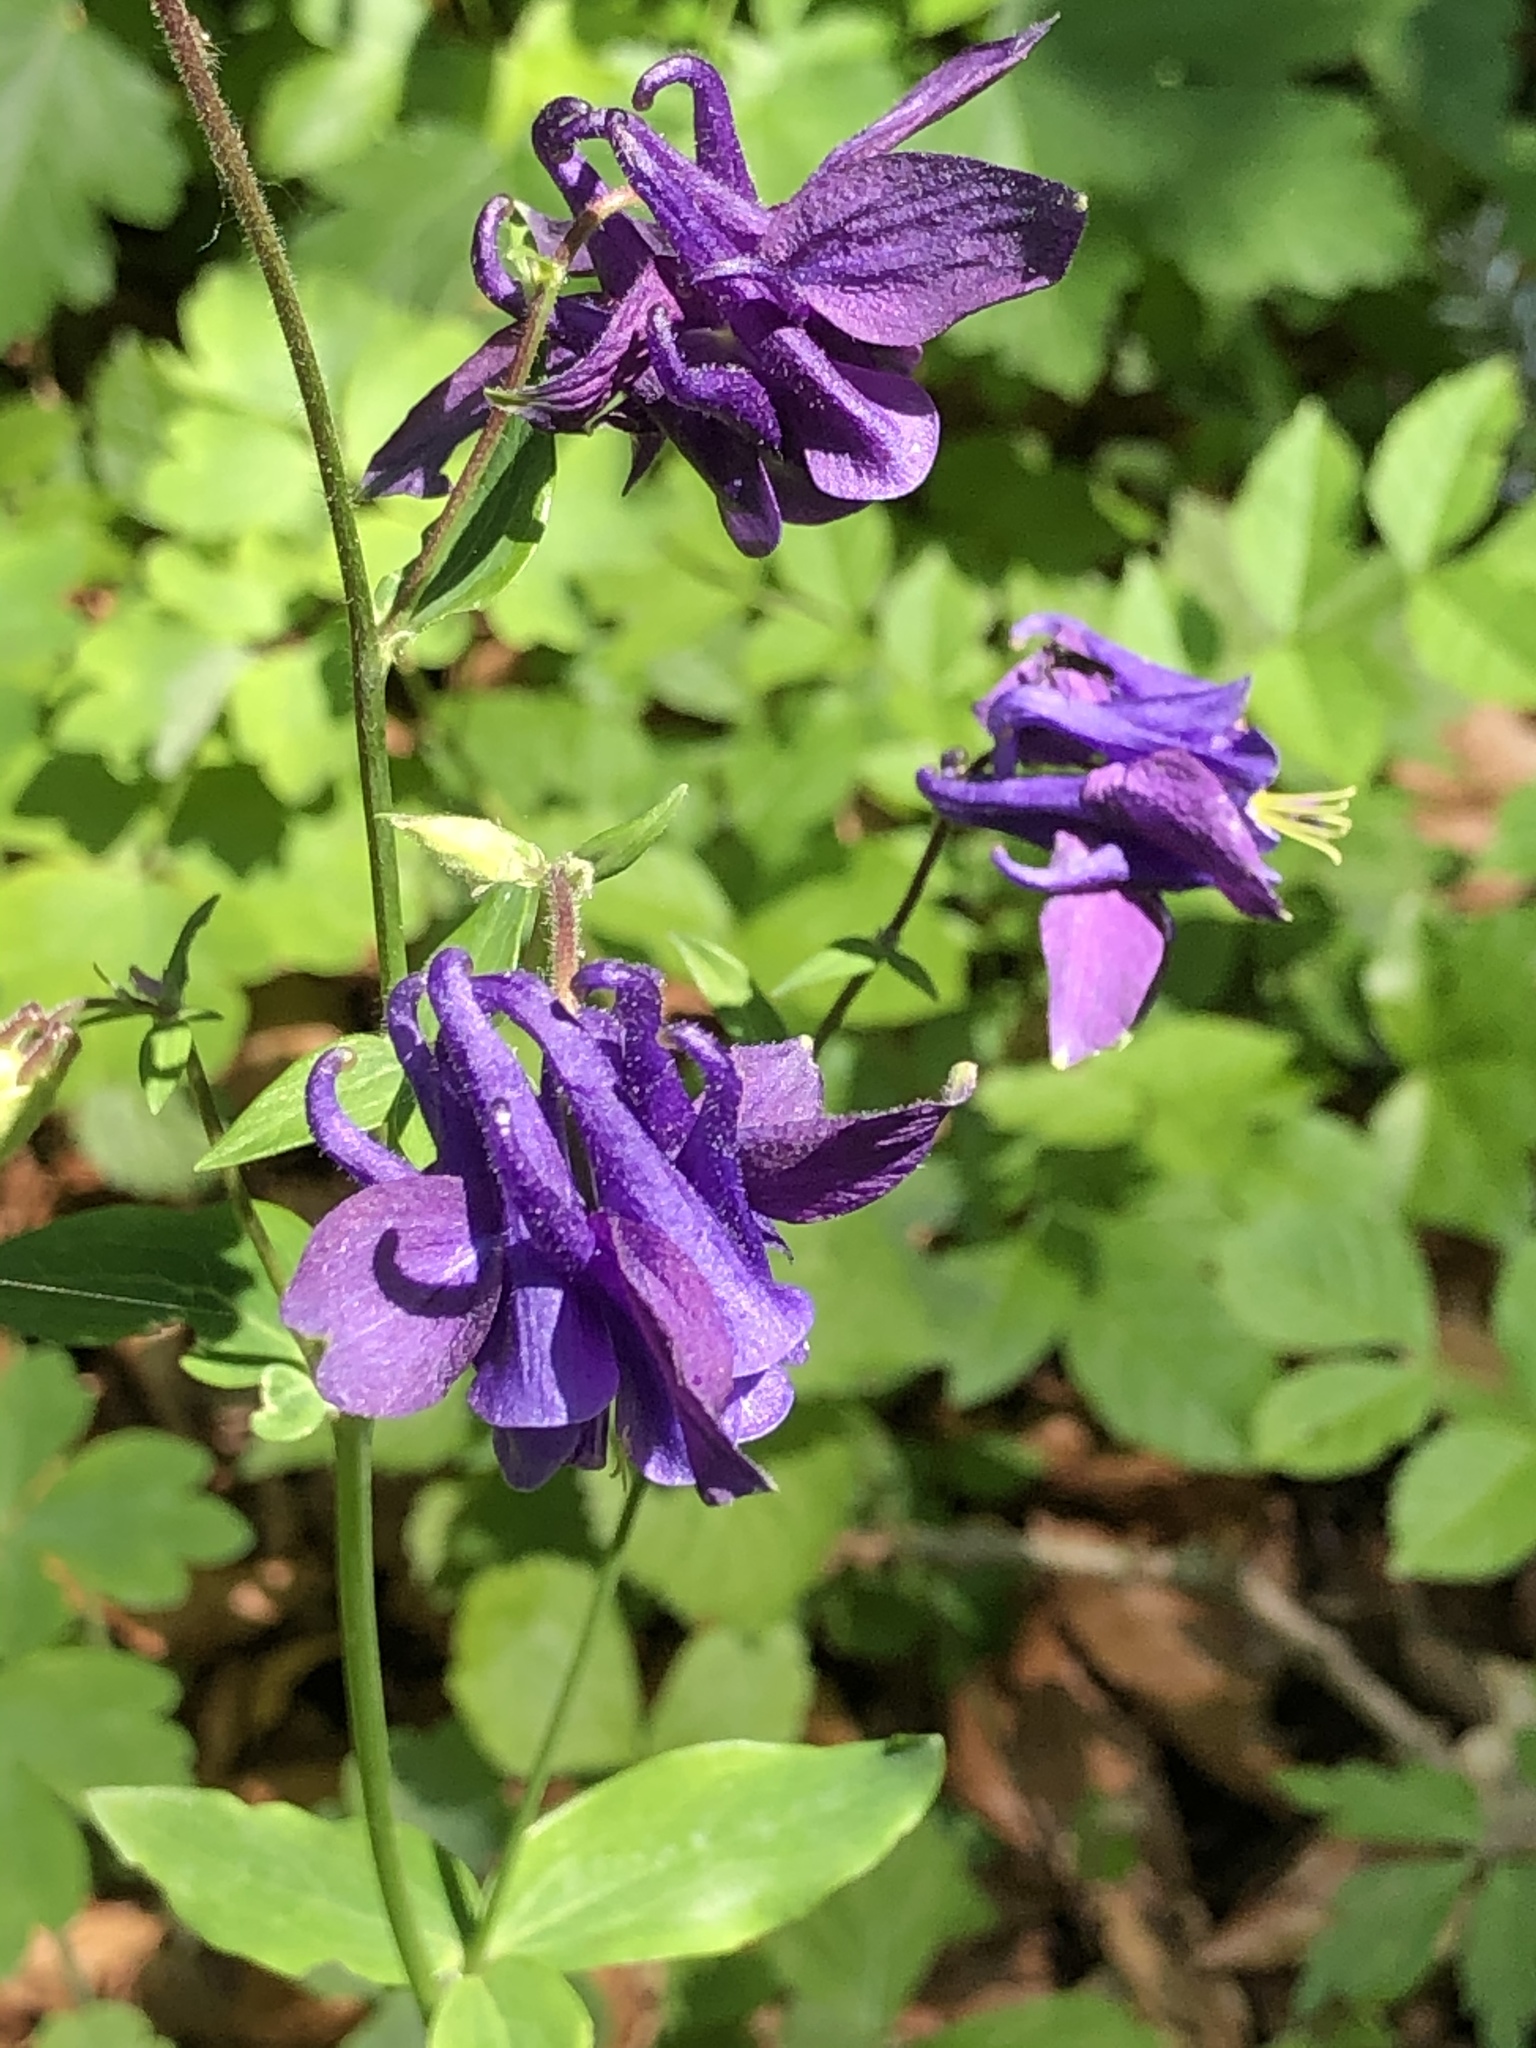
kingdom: Plantae
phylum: Tracheophyta
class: Magnoliopsida
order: Ranunculales
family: Ranunculaceae
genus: Aquilegia
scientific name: Aquilegia vulgaris
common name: Columbine
